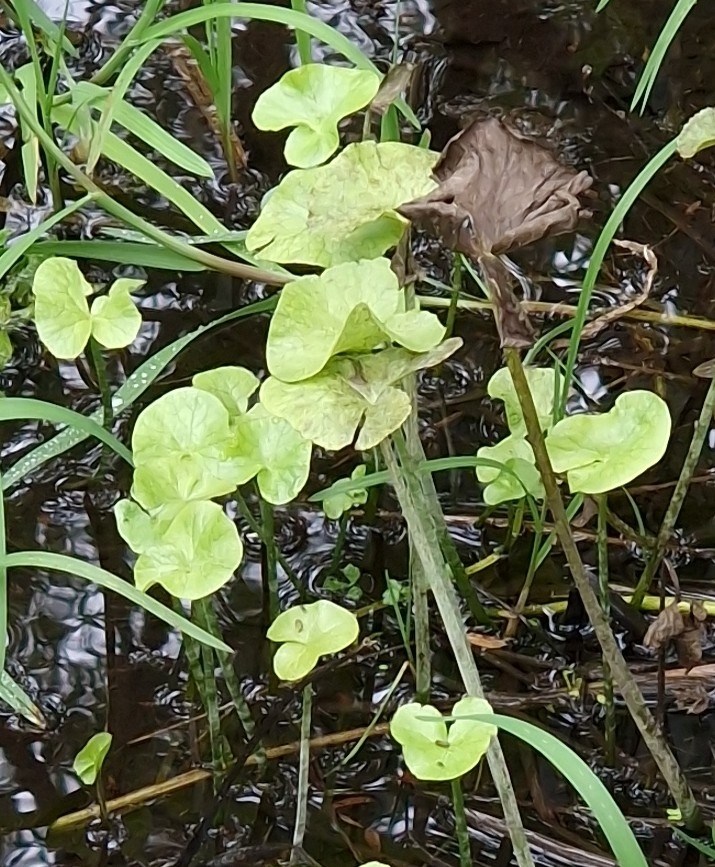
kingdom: Plantae
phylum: Tracheophyta
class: Magnoliopsida
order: Ranunculales
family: Ranunculaceae
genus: Caltha
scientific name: Caltha palustris
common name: Marsh marigold
